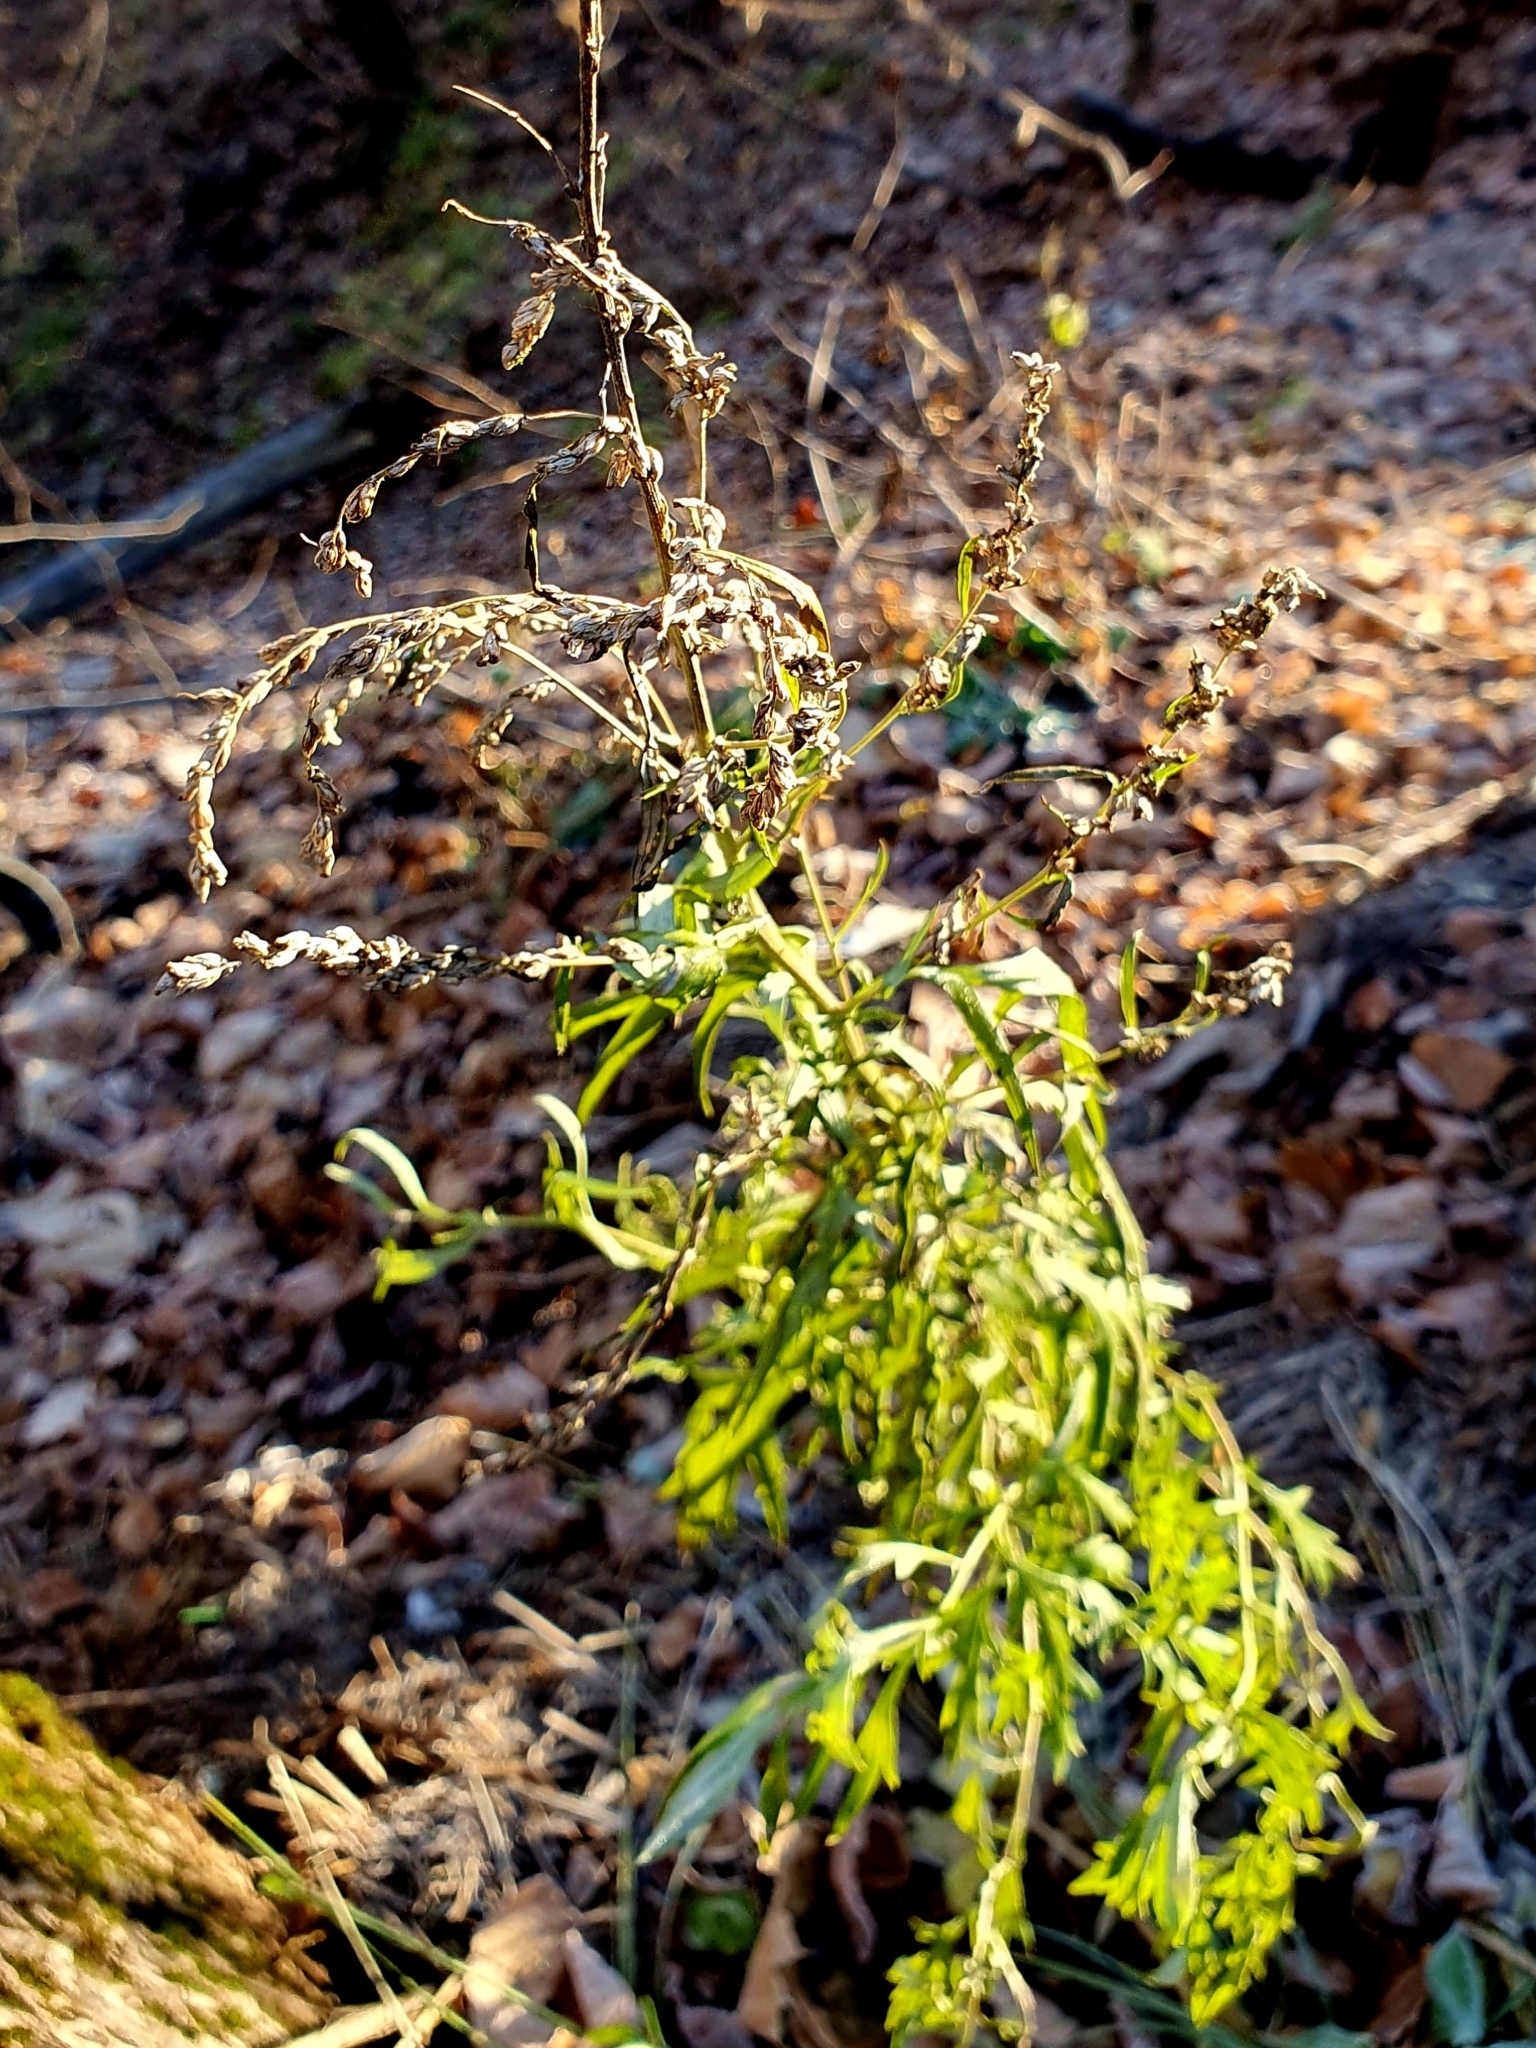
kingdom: Plantae
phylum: Tracheophyta
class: Magnoliopsida
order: Asterales
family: Asteraceae
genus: Artemisia
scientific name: Artemisia vulgaris
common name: Mugwort
